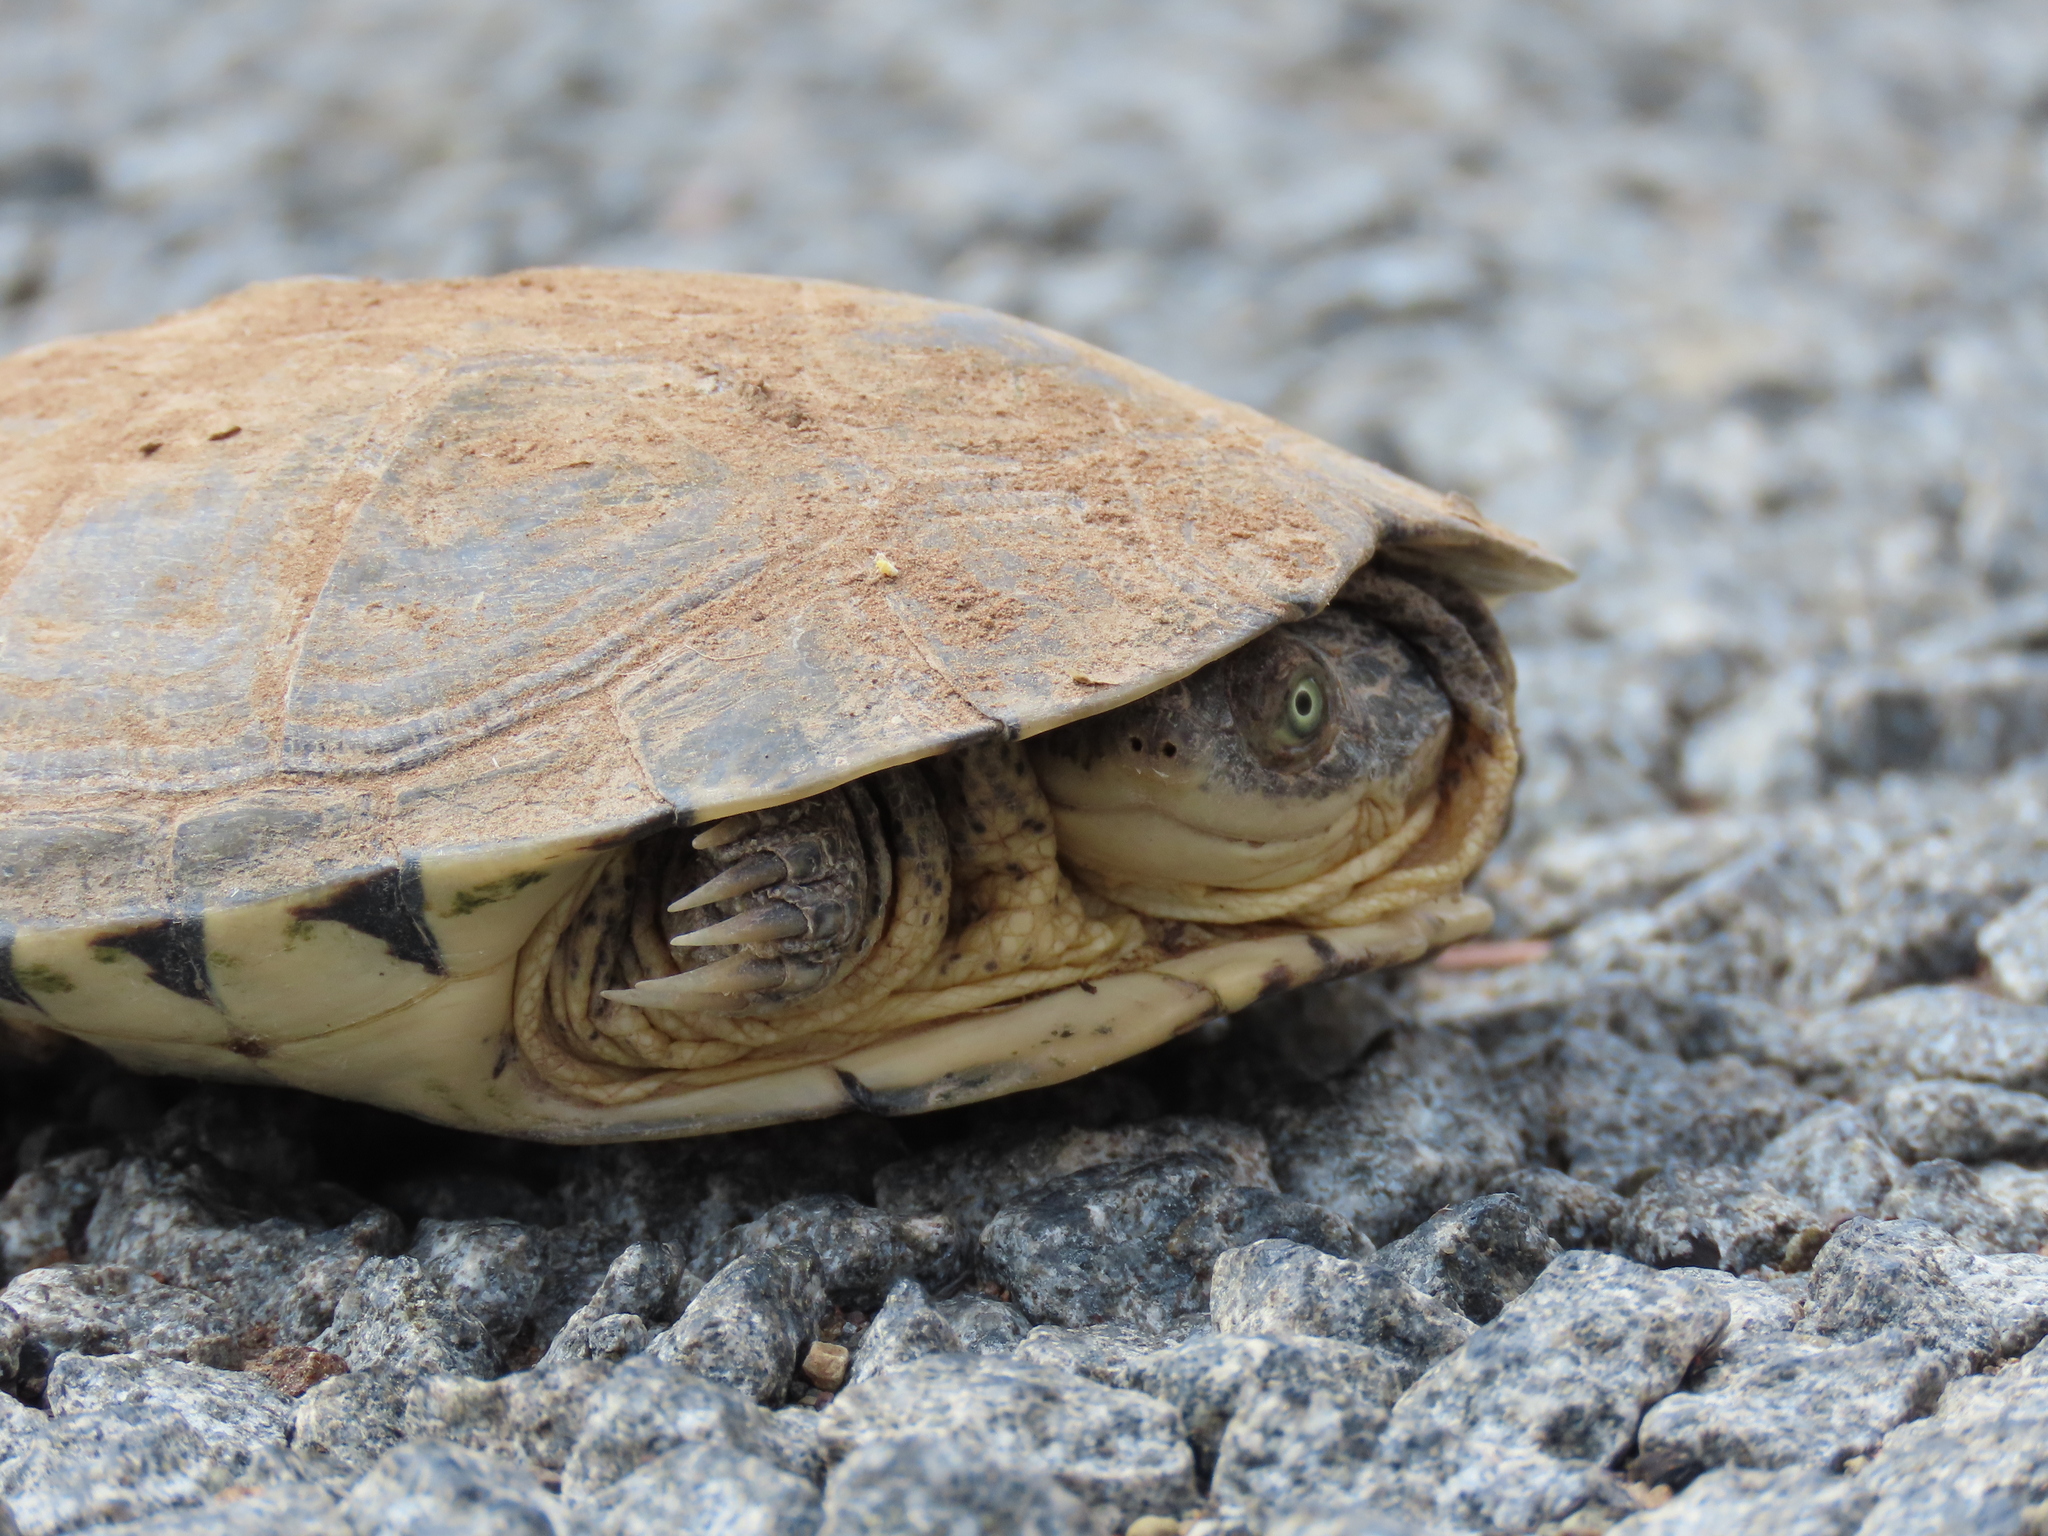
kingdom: Animalia
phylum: Chordata
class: Testudines
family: Pelomedusidae
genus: Pelomedusa
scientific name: Pelomedusa galeata
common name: South african helmeted terrapin
